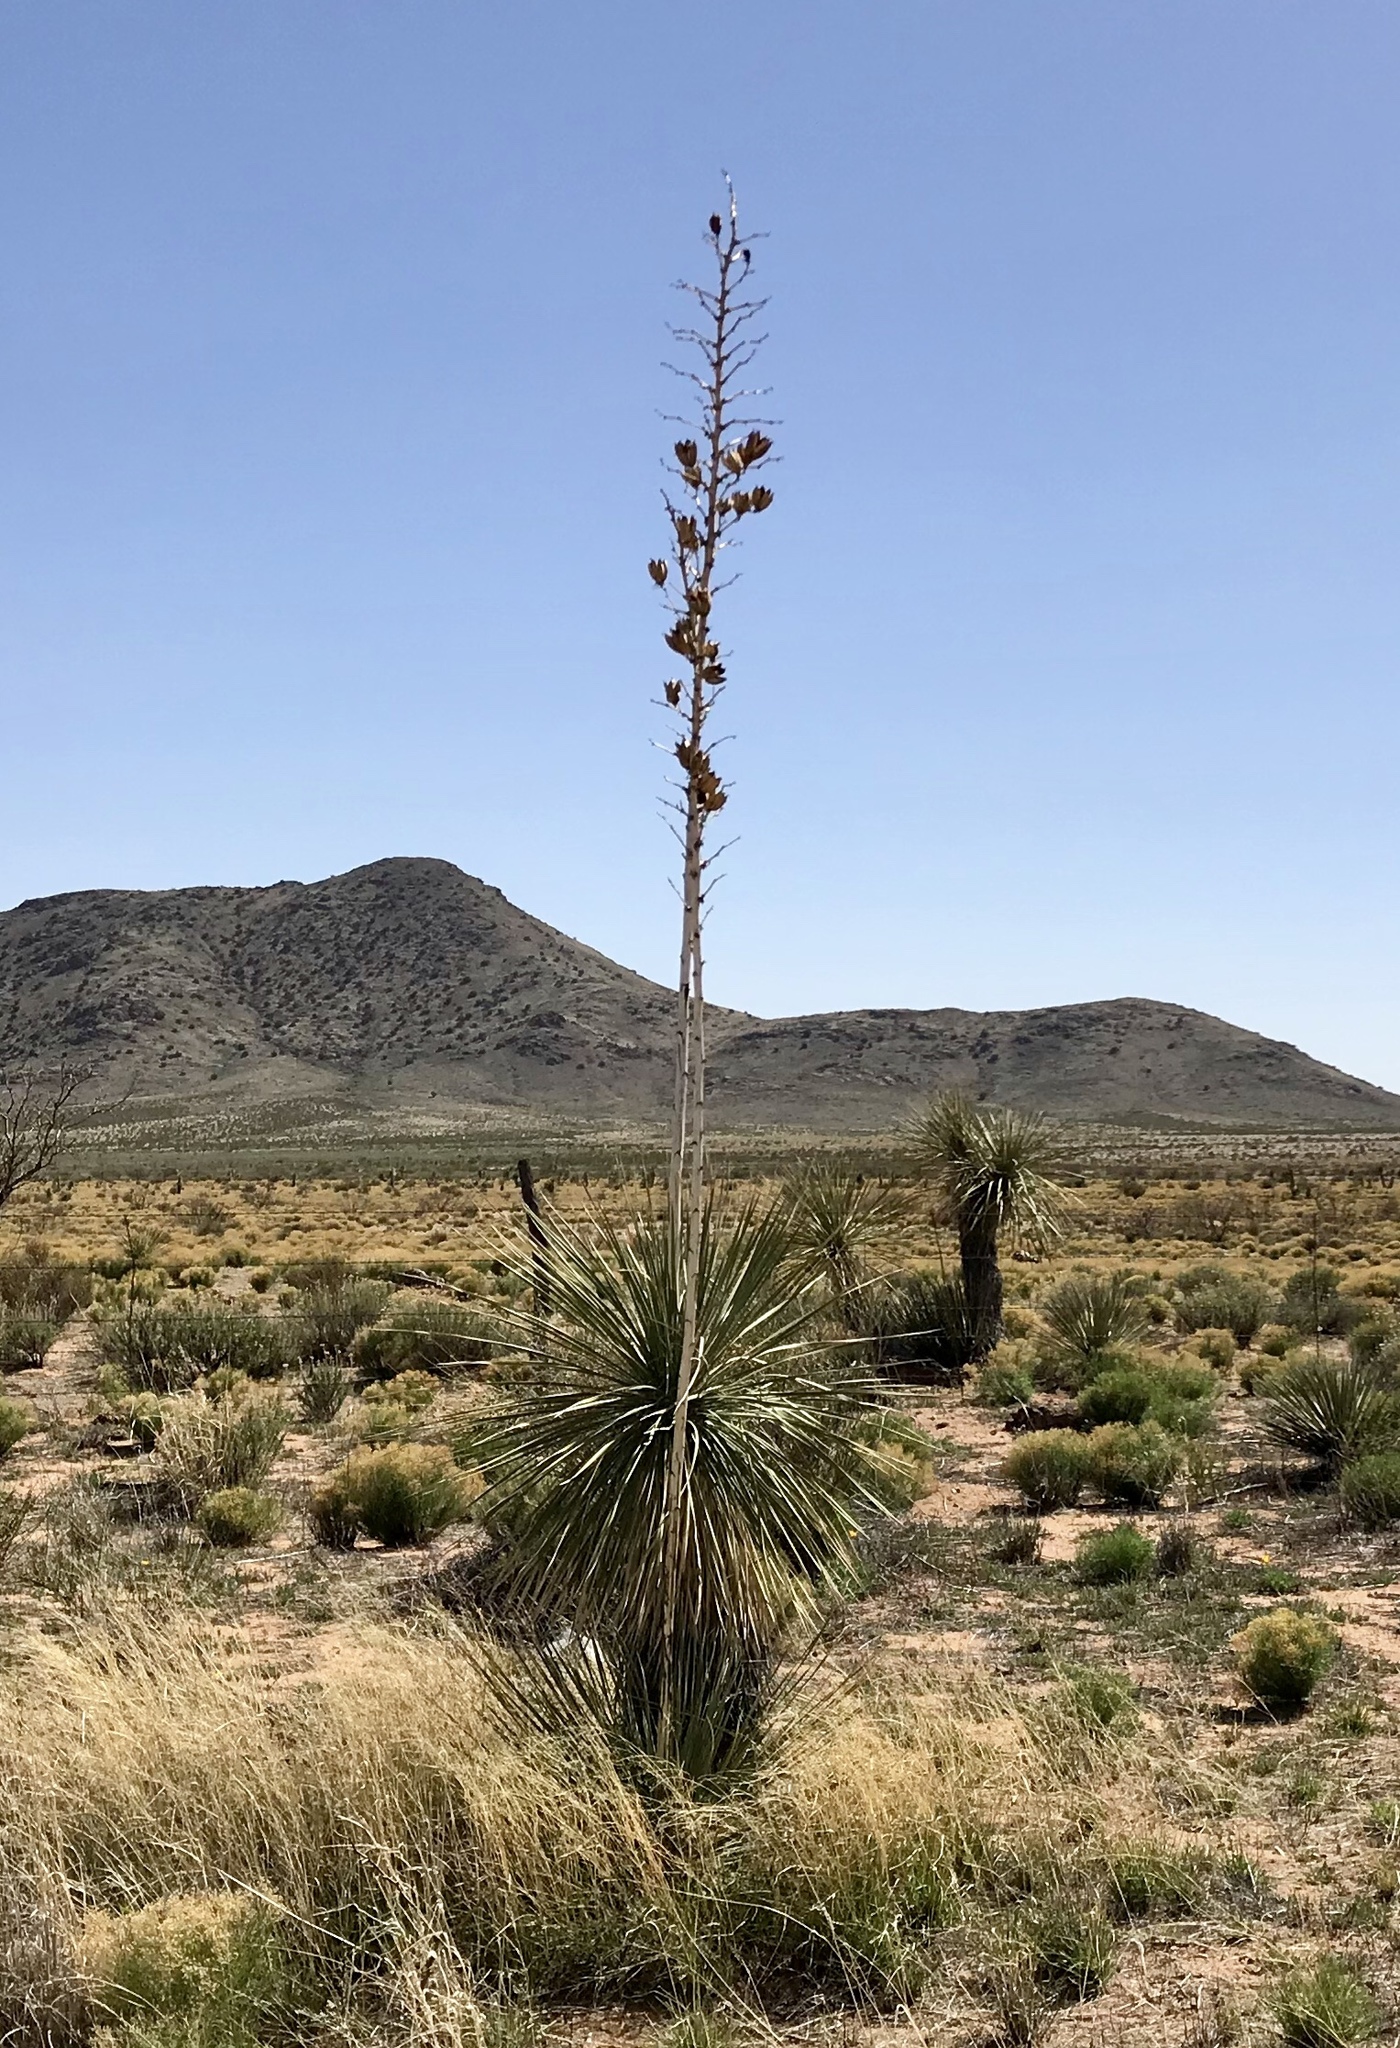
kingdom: Plantae
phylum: Tracheophyta
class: Liliopsida
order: Asparagales
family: Asparagaceae
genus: Yucca
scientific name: Yucca elata
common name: Palmella
